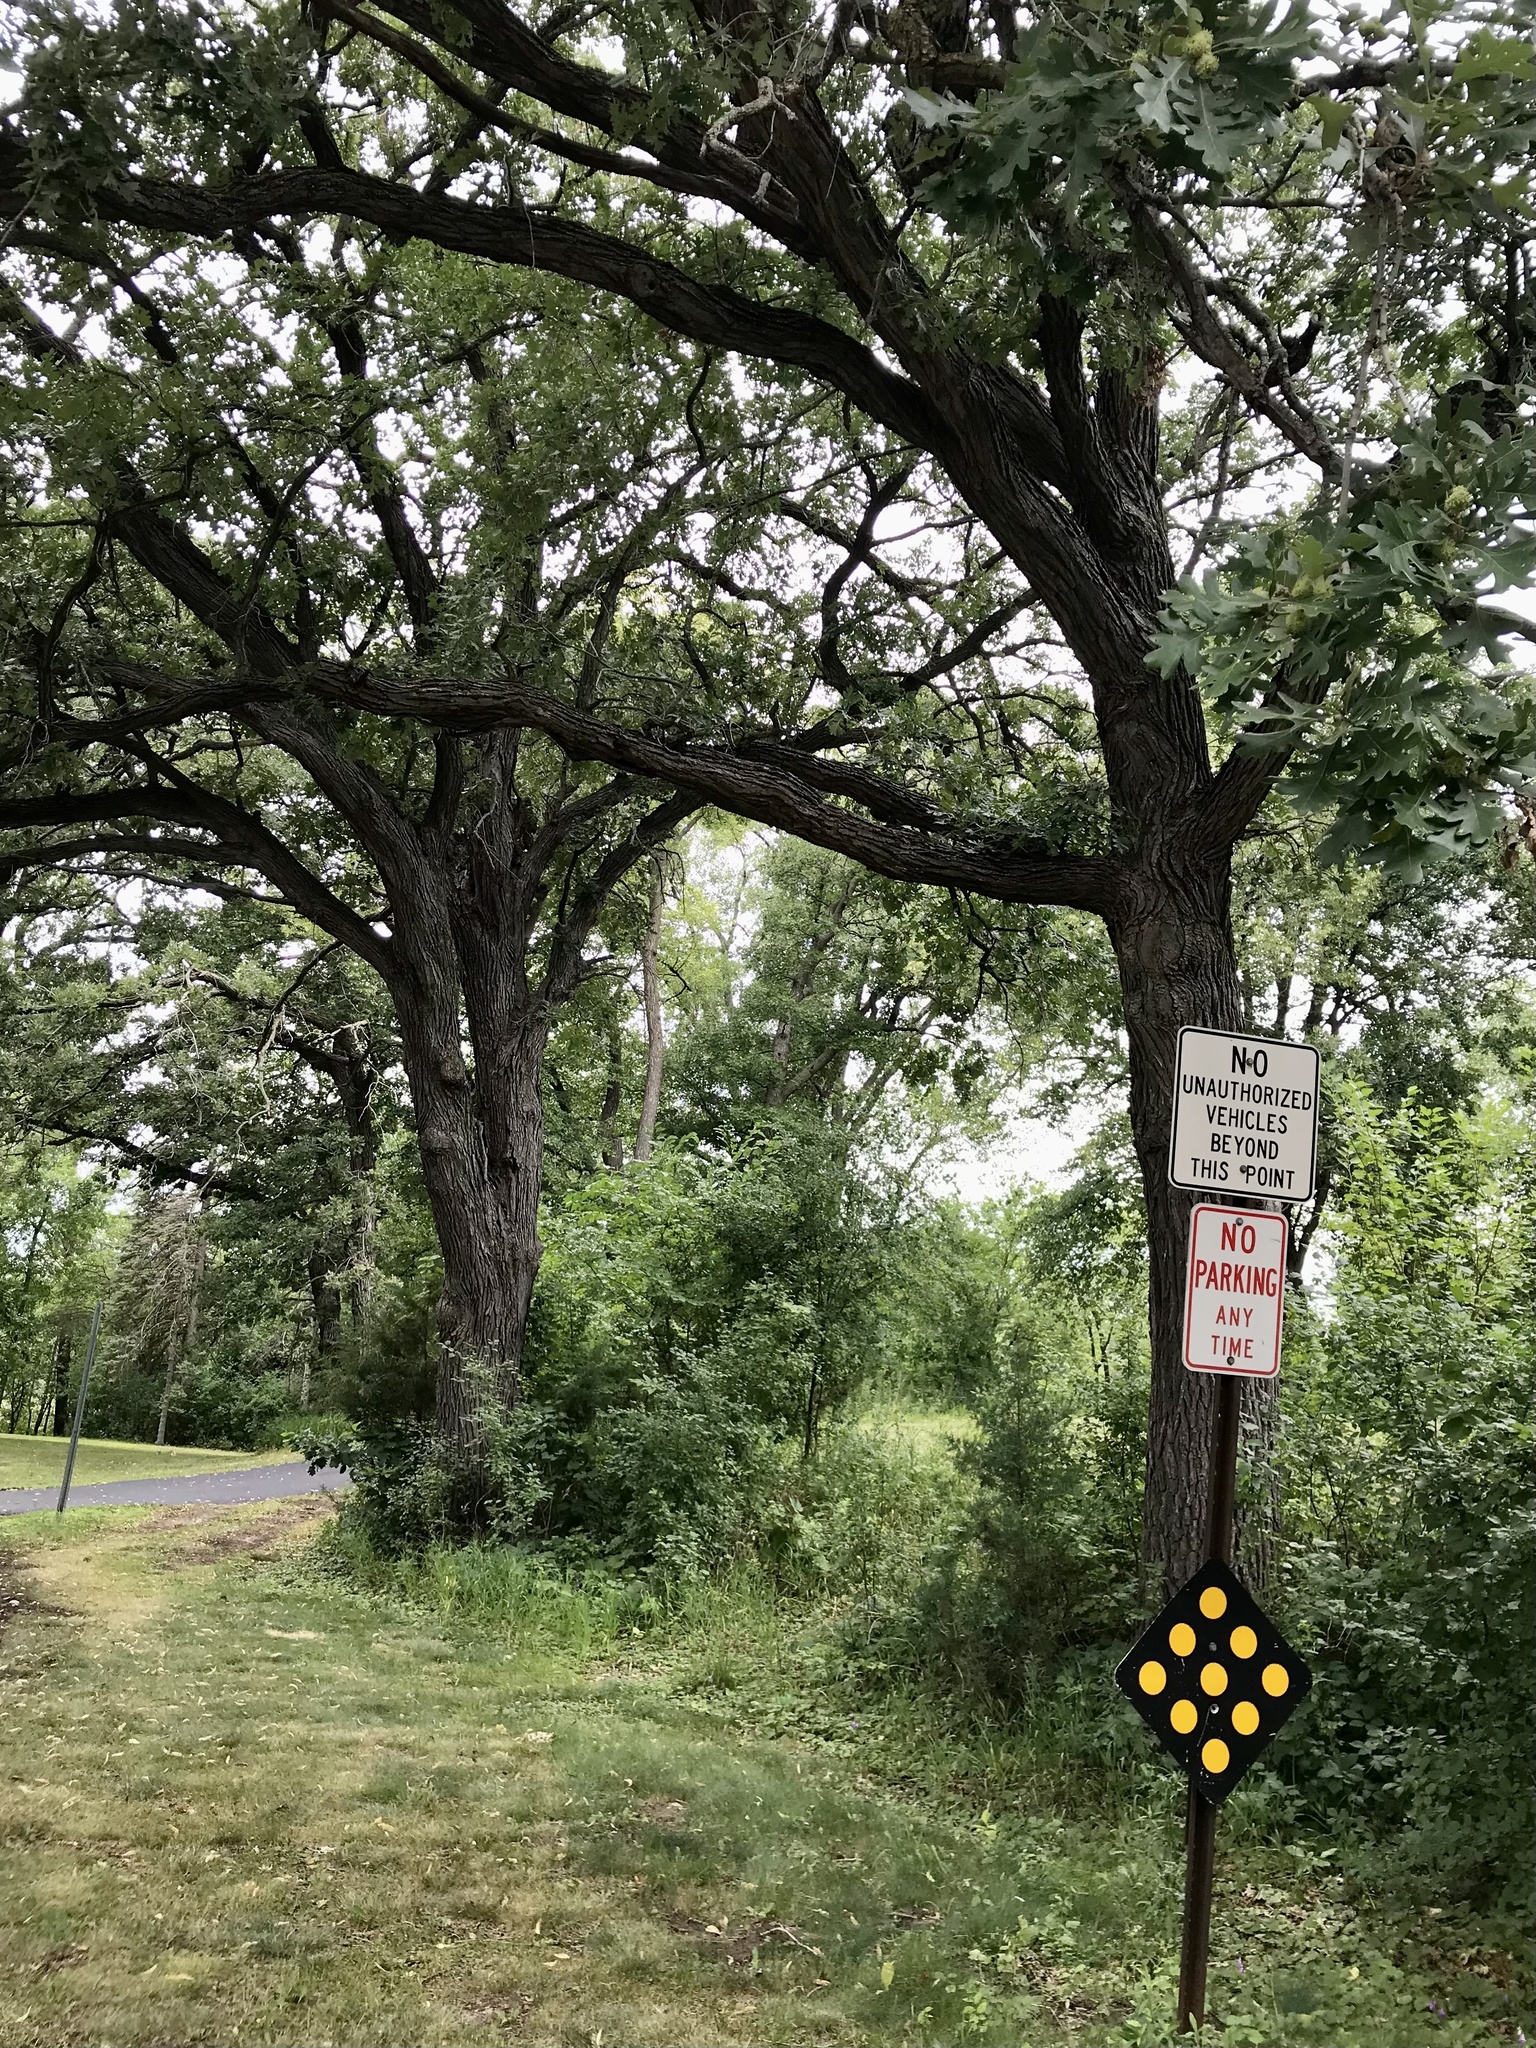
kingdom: Plantae
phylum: Tracheophyta
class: Magnoliopsida
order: Fagales
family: Fagaceae
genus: Quercus
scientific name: Quercus macrocarpa
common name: Bur oak
